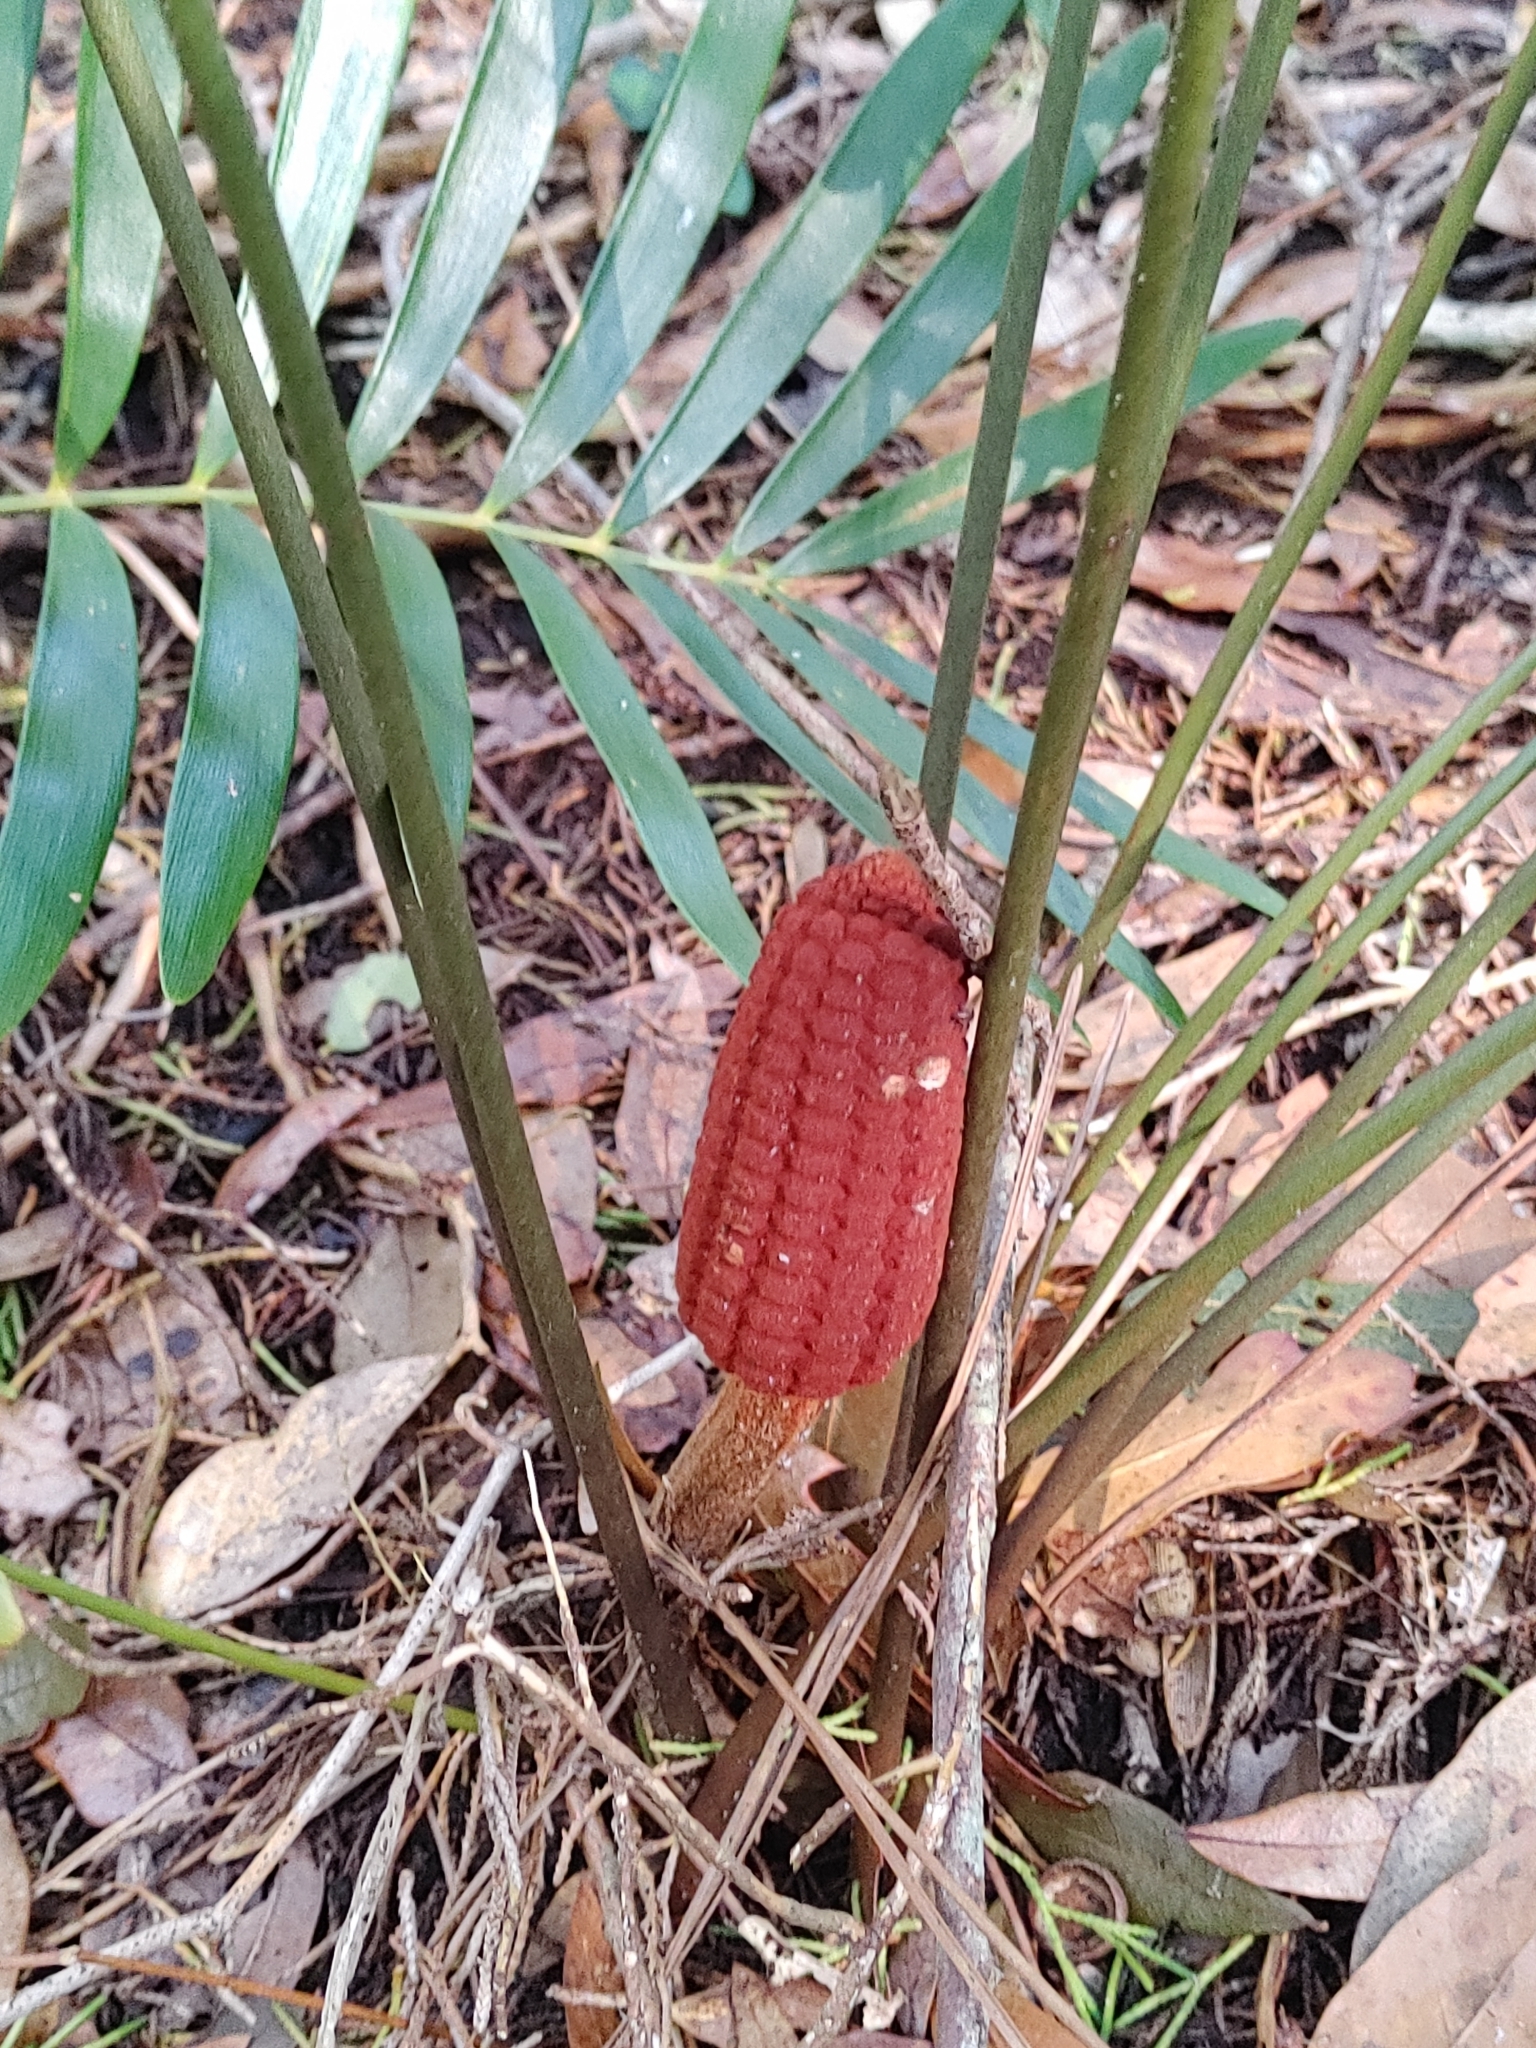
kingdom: Plantae
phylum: Tracheophyta
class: Cycadopsida
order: Cycadales
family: Zamiaceae
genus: Zamia
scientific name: Zamia integrifolia
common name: Florida arrowroot
